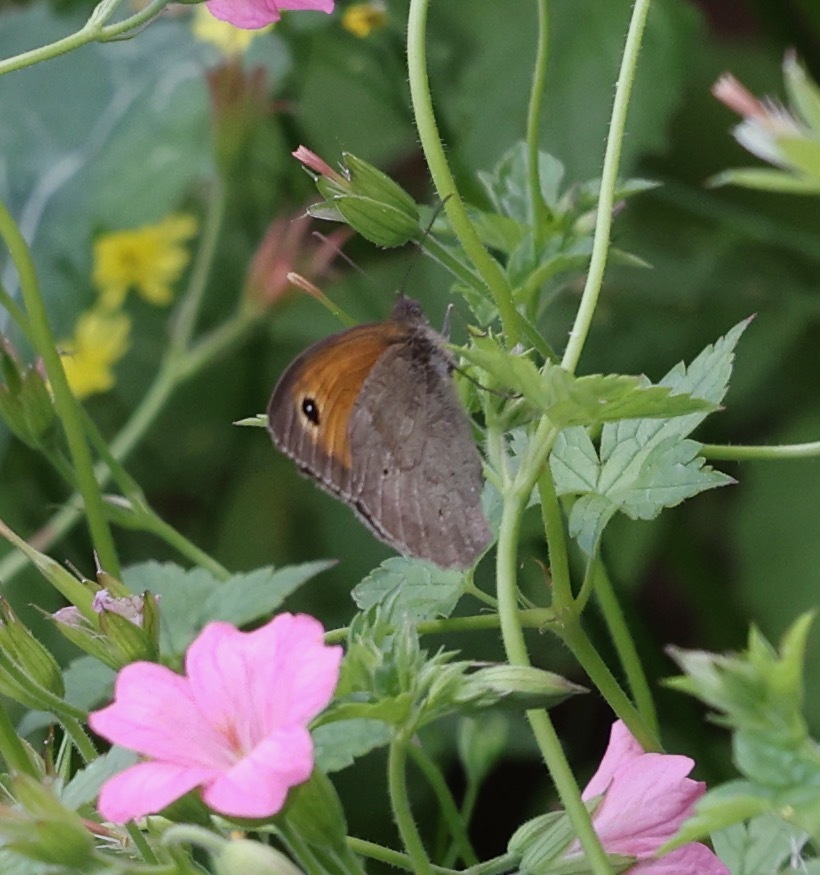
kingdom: Animalia
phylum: Arthropoda
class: Insecta
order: Lepidoptera
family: Nymphalidae
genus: Maniola
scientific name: Maniola jurtina
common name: Meadow brown
